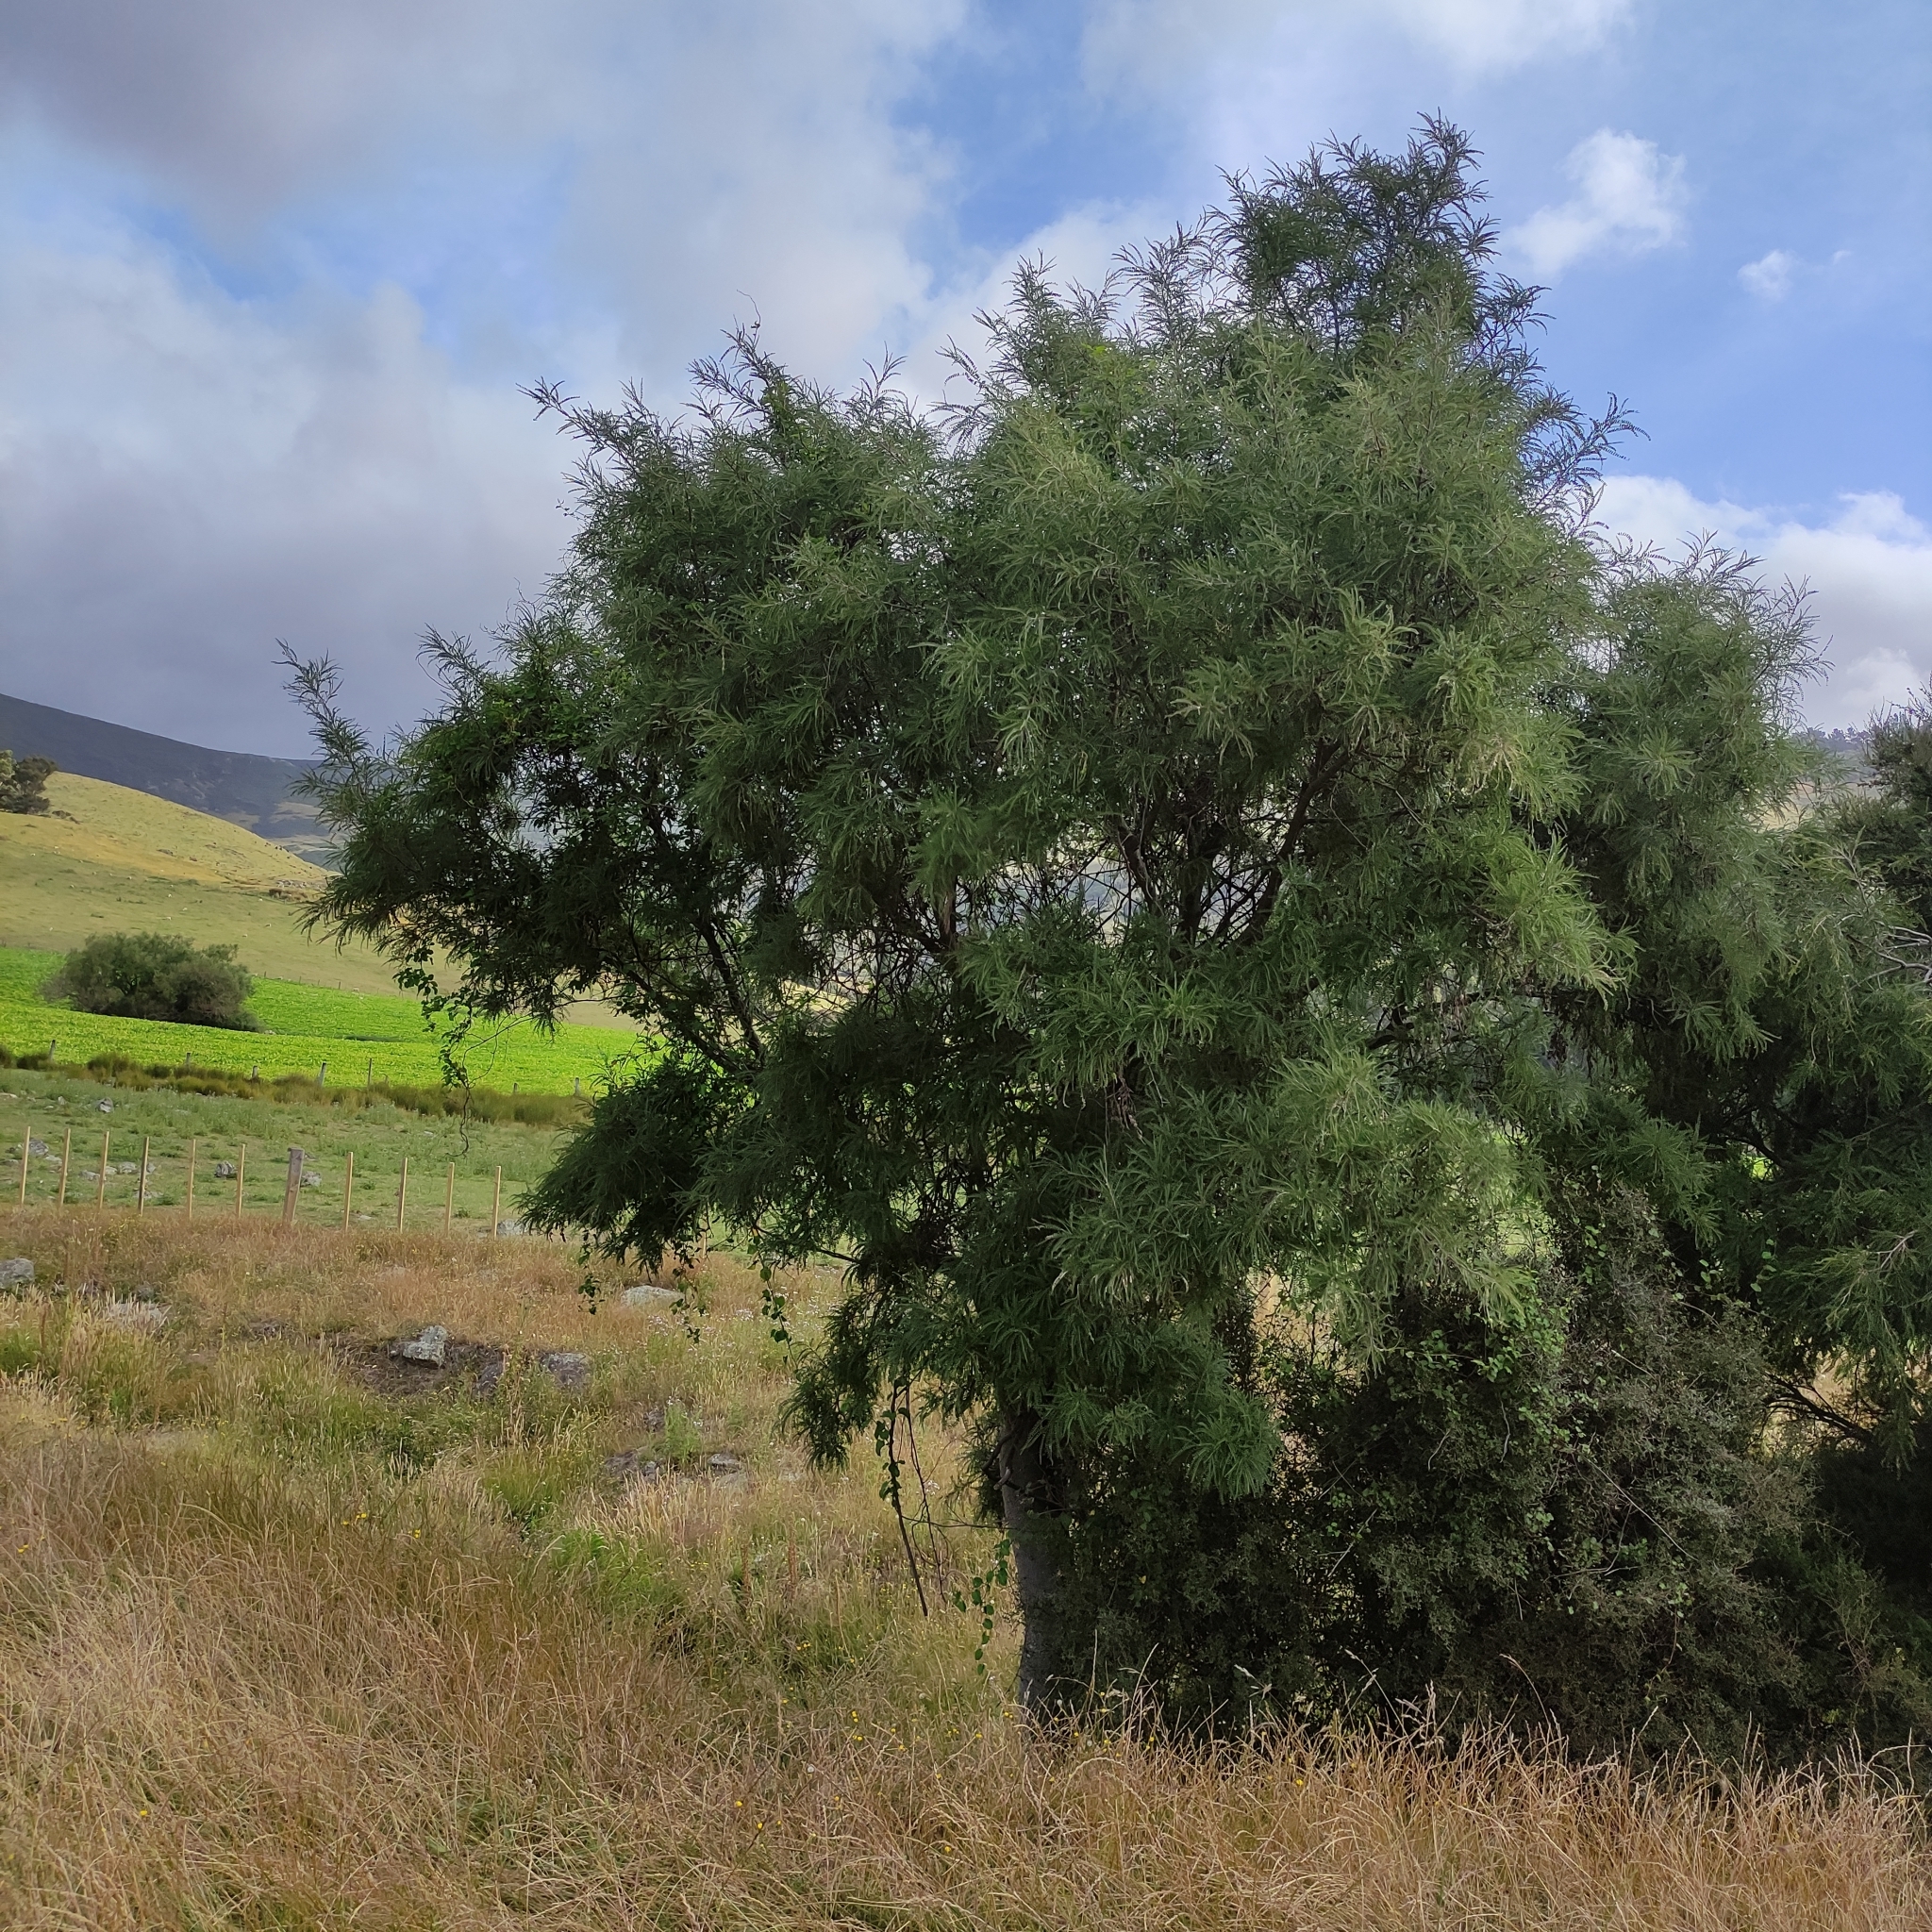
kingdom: Plantae
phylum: Tracheophyta
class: Magnoliopsida
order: Fabales
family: Fabaceae
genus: Sophora
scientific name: Sophora microphylla
